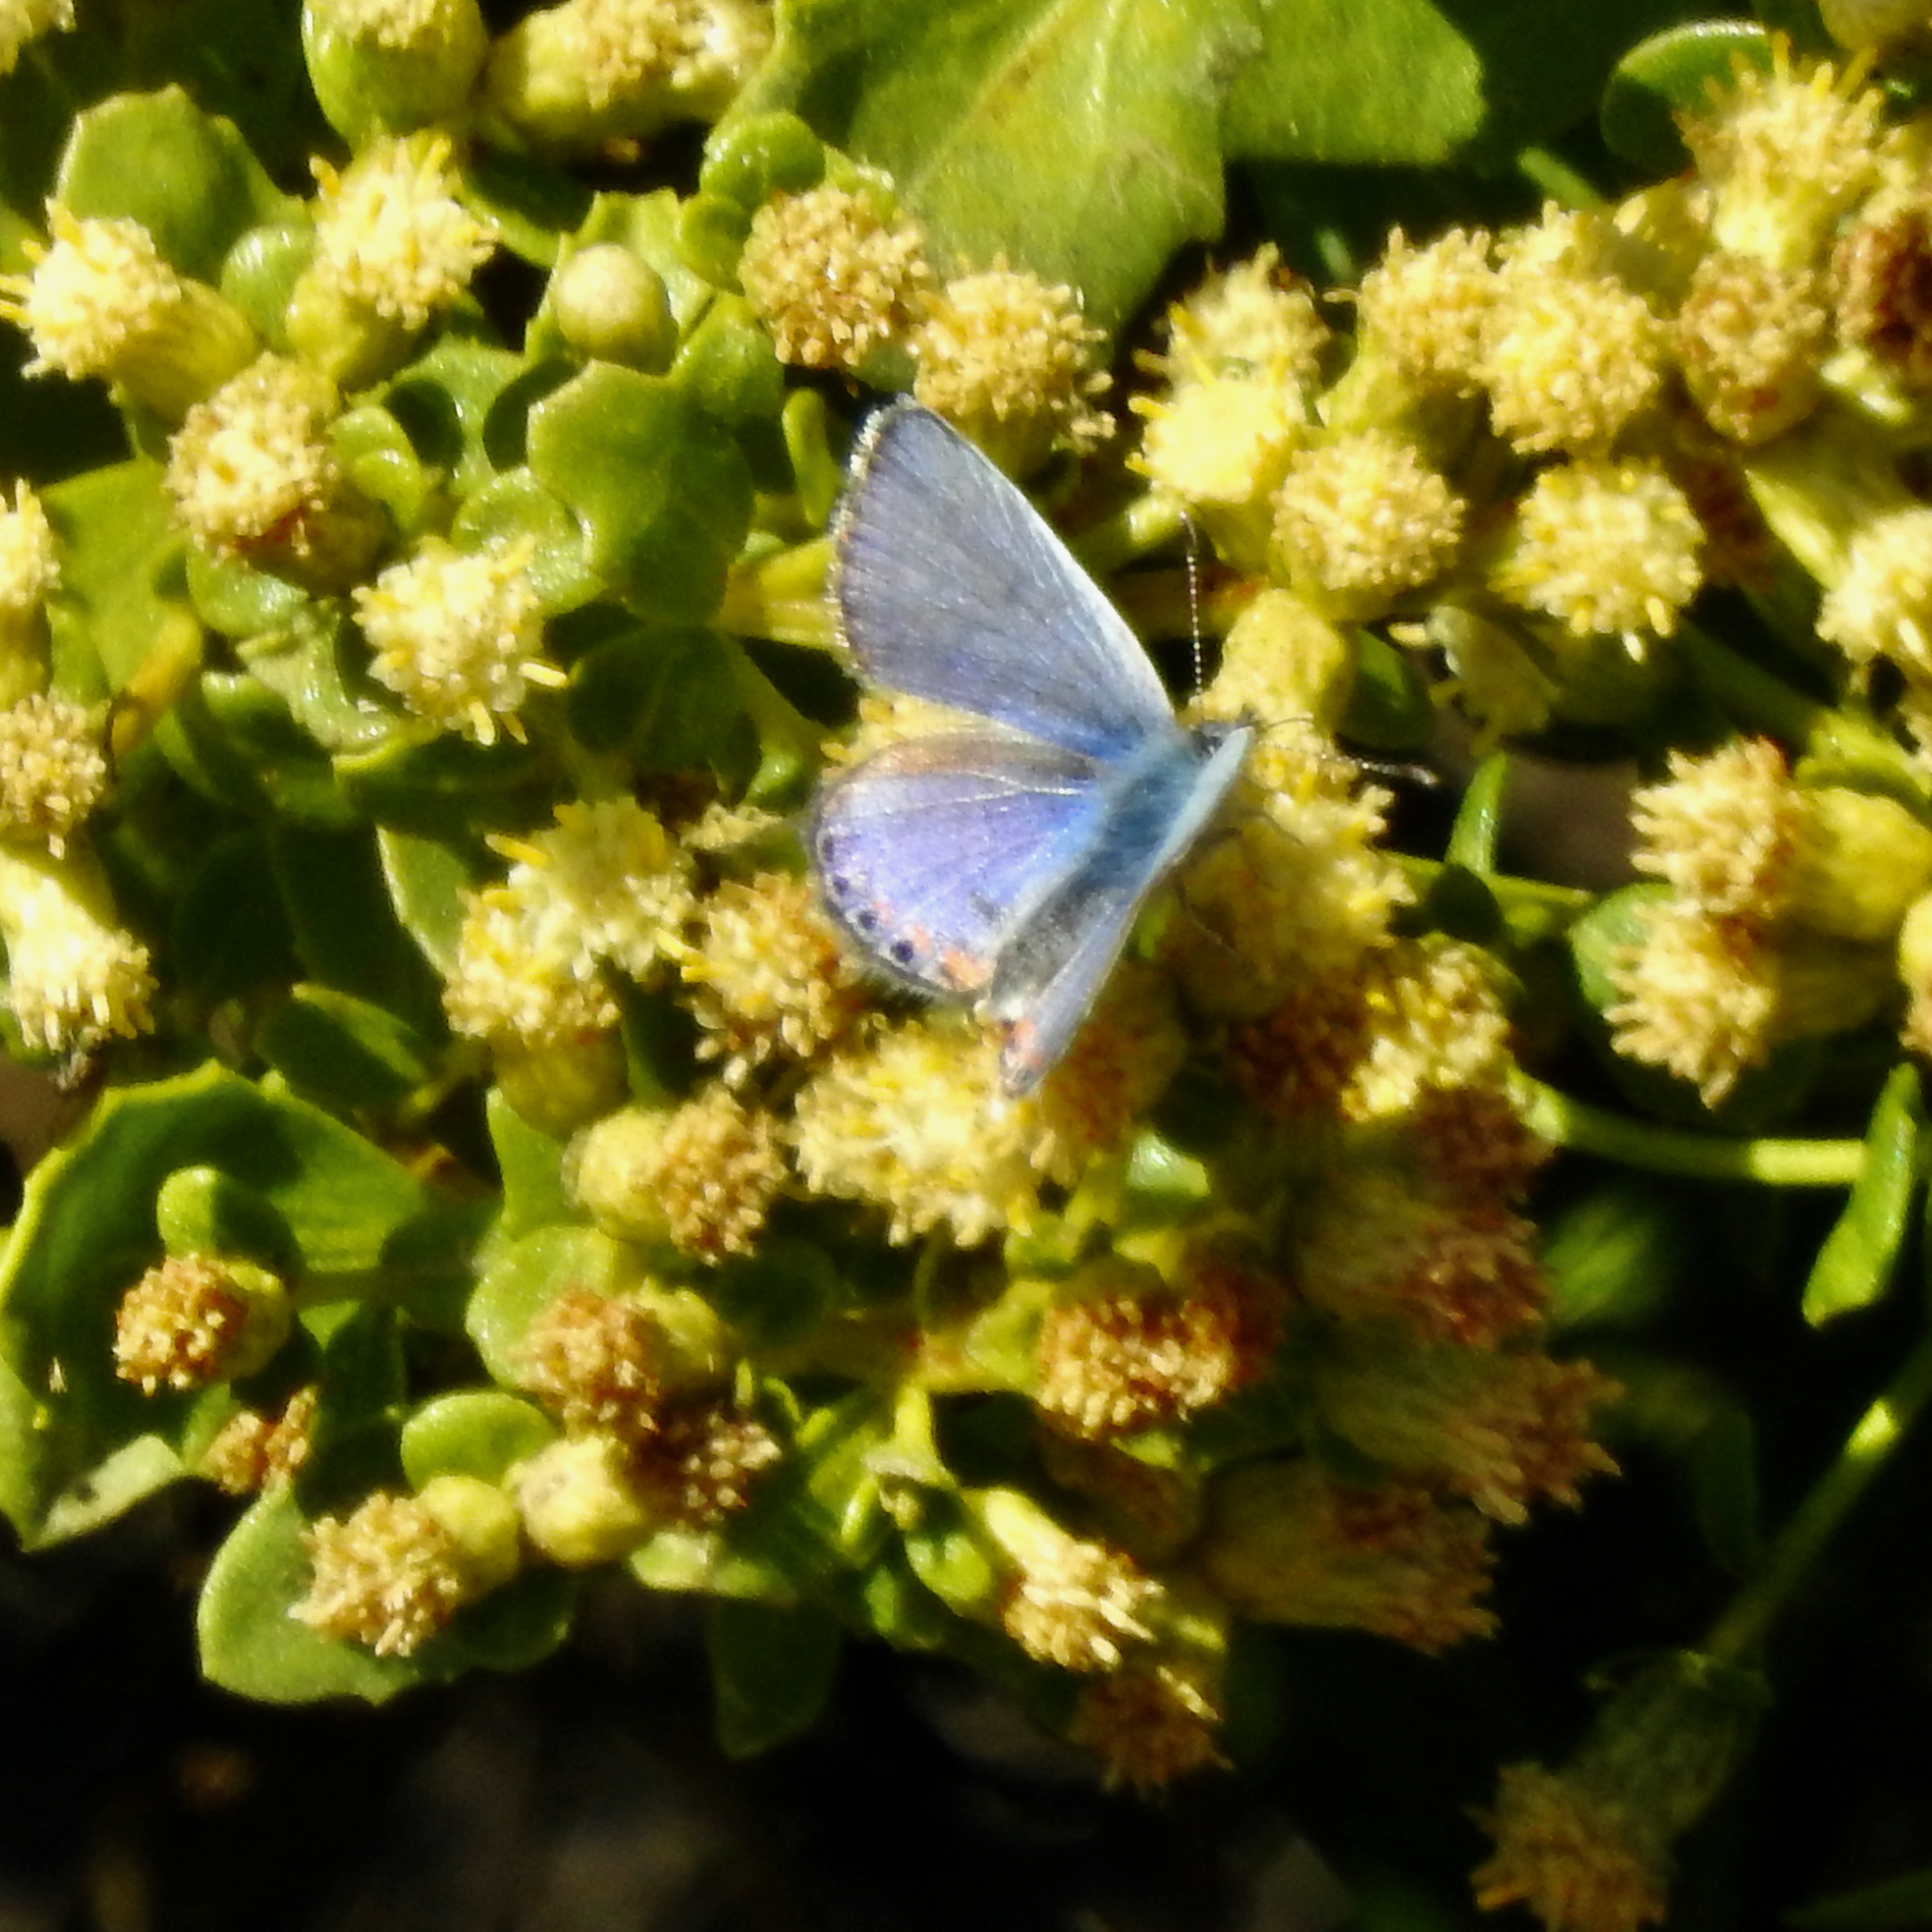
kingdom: Plantae
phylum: Tracheophyta
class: Magnoliopsida
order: Asterales
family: Asteraceae
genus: Baccharis
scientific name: Baccharis pilularis
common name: Coyotebrush
